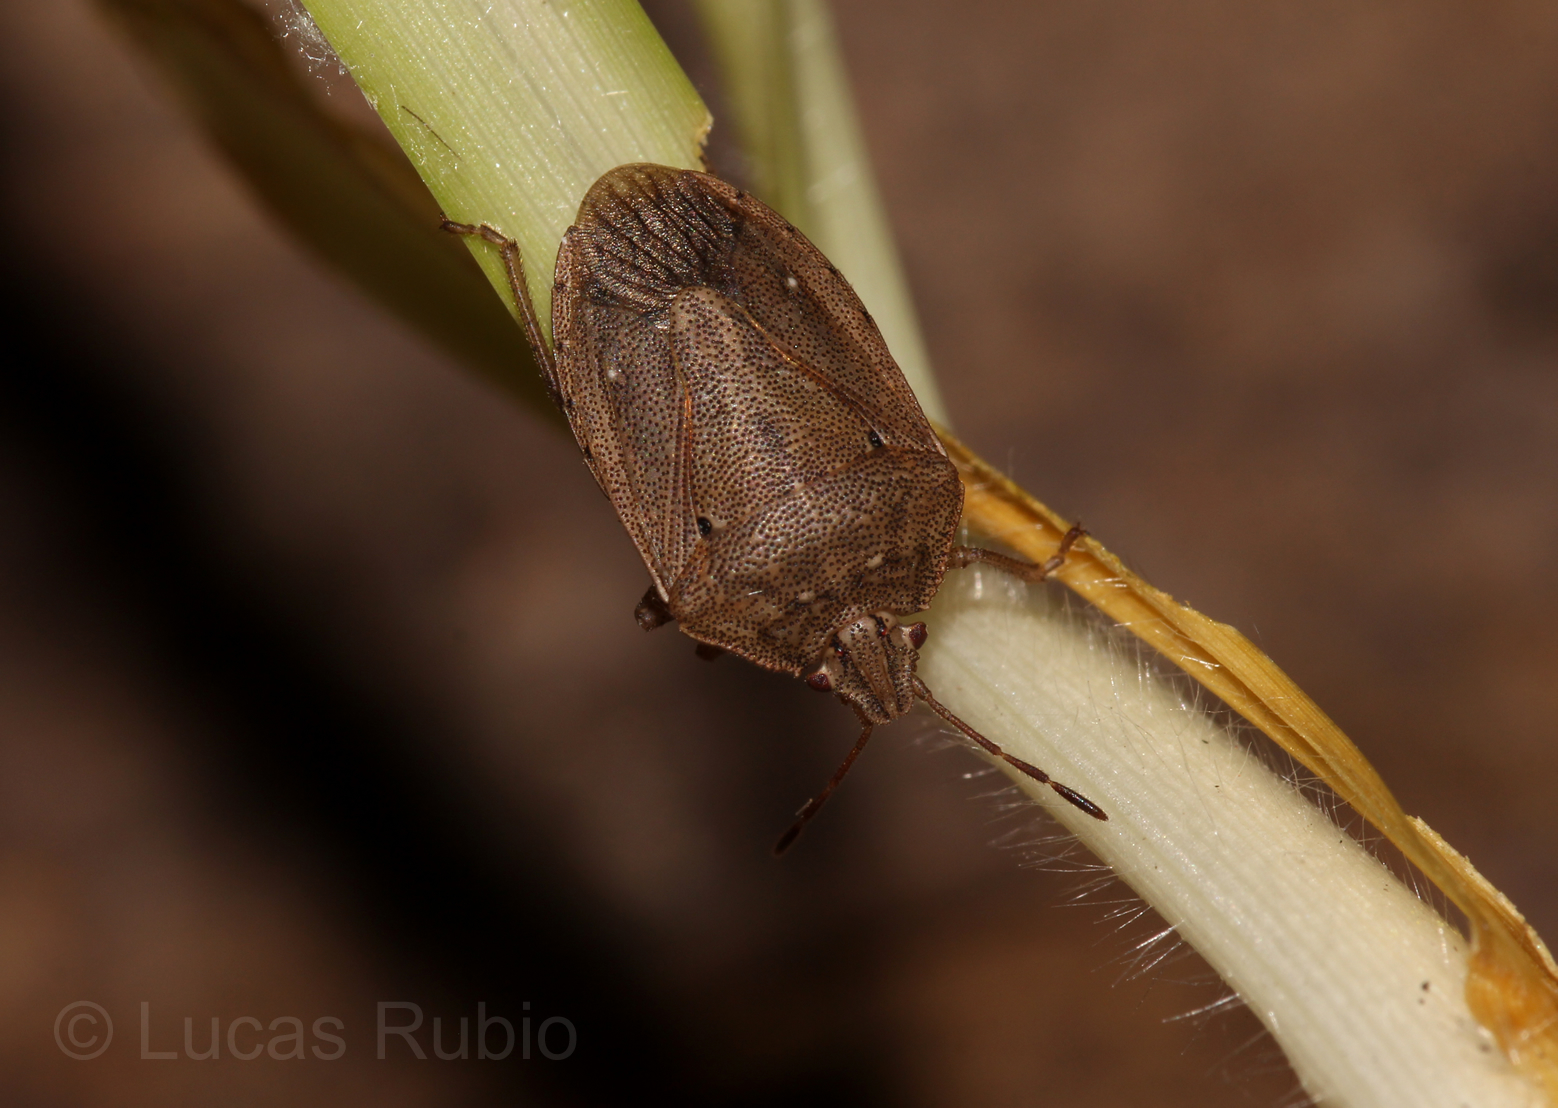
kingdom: Animalia
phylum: Arthropoda
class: Insecta
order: Hemiptera
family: Pentatomidae
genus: Hypatropis
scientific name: Hypatropis inermis
